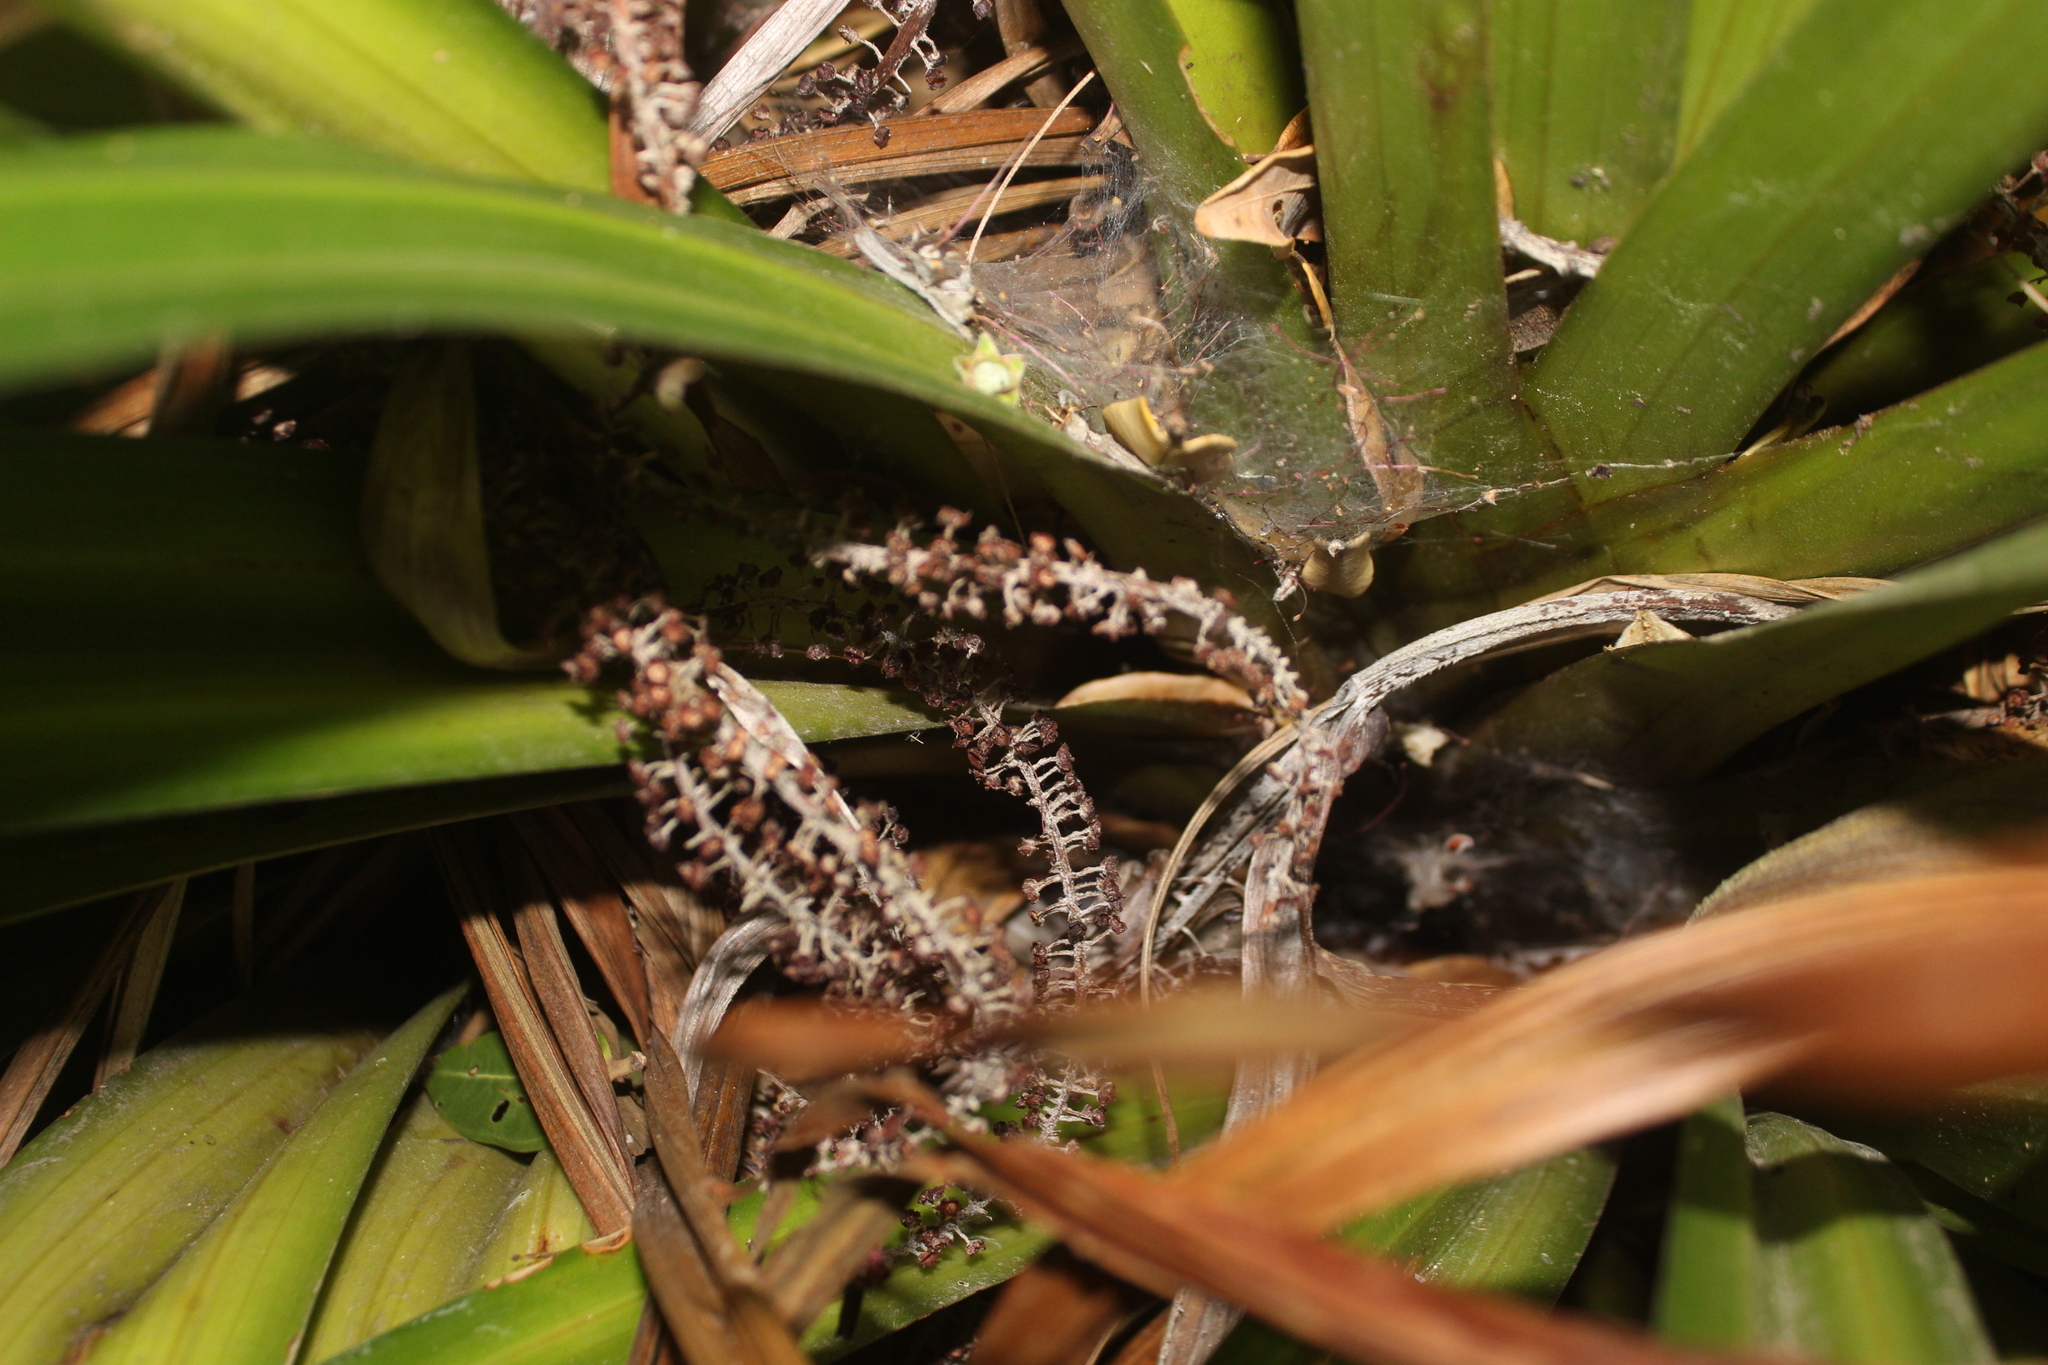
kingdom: Plantae
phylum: Tracheophyta
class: Liliopsida
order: Asparagales
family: Asteliaceae
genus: Astelia
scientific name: Astelia hastata
